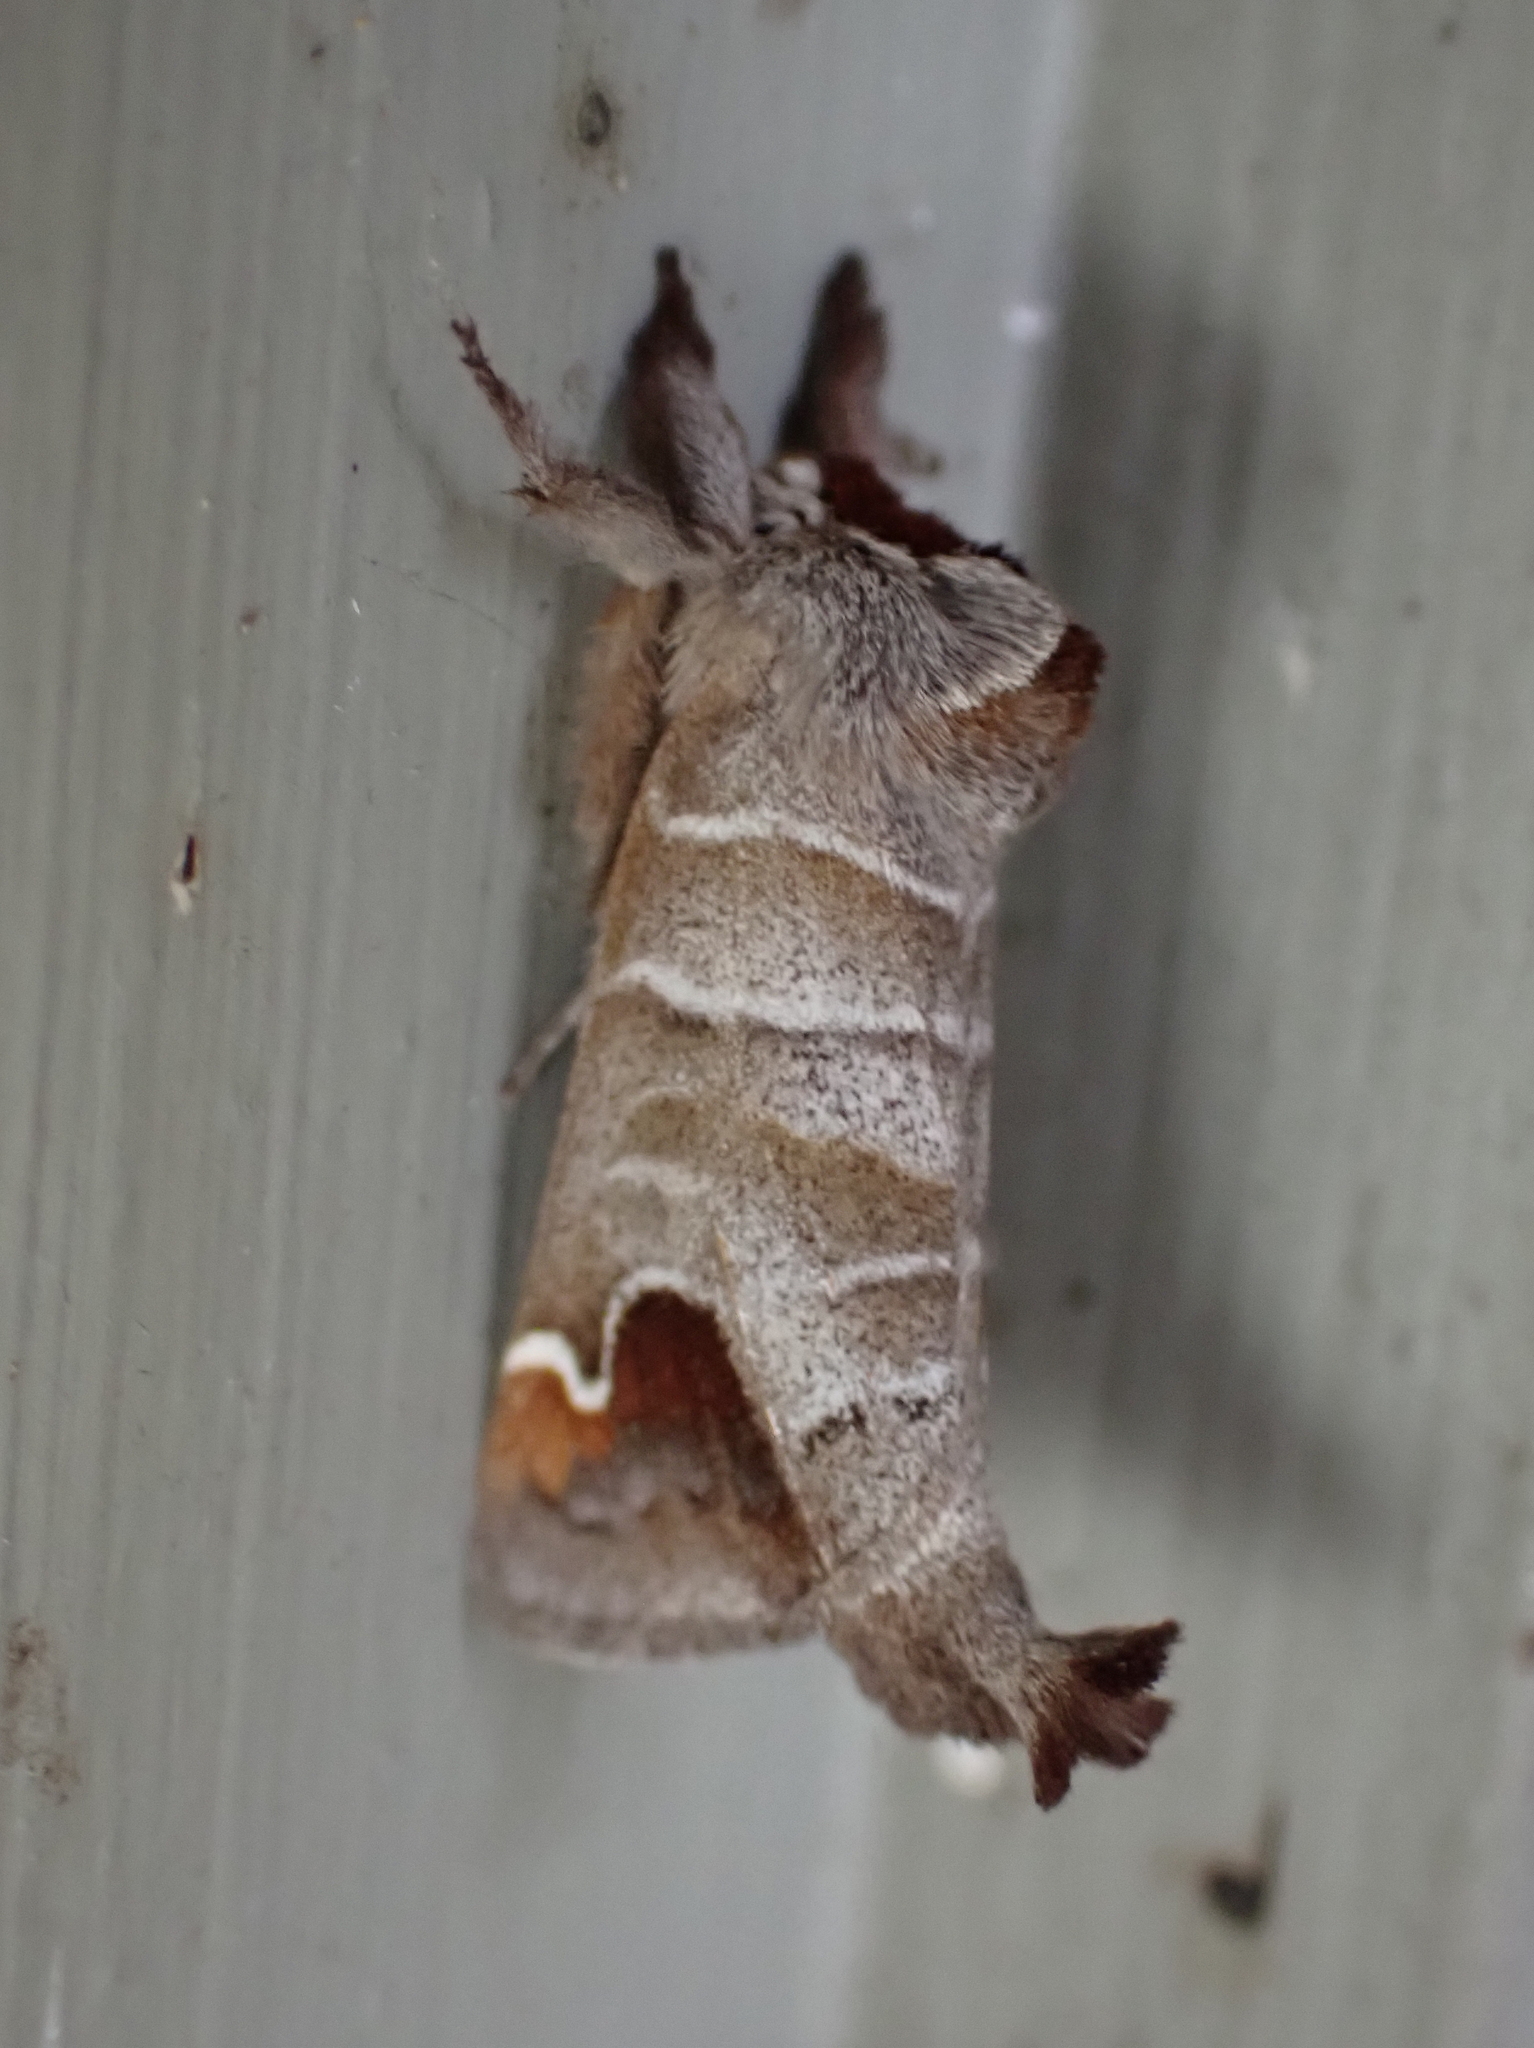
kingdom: Animalia
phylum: Arthropoda
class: Insecta
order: Lepidoptera
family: Notodontidae
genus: Clostera
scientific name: Clostera albosigma
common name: Sigmoid prominent
